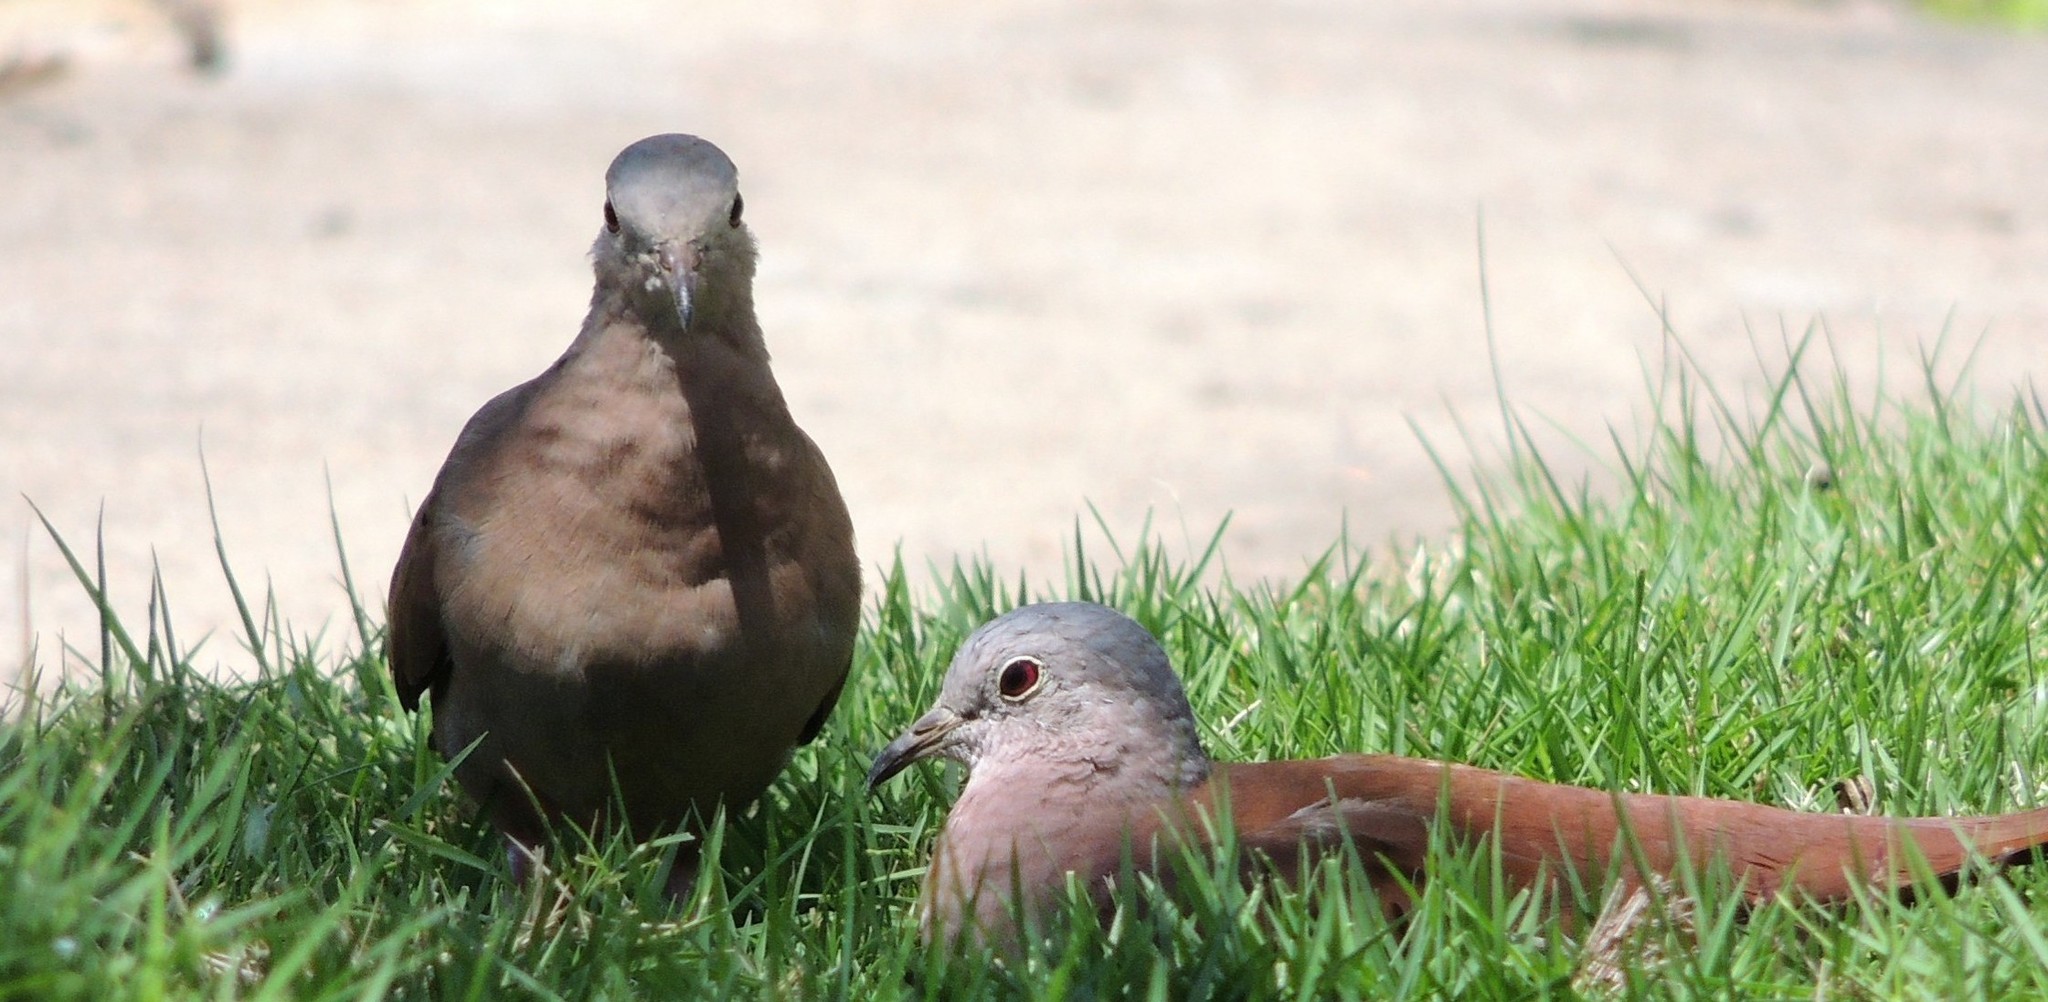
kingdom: Animalia
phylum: Chordata
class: Aves
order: Columbiformes
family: Columbidae
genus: Columbina
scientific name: Columbina talpacoti
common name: Ruddy ground dove
